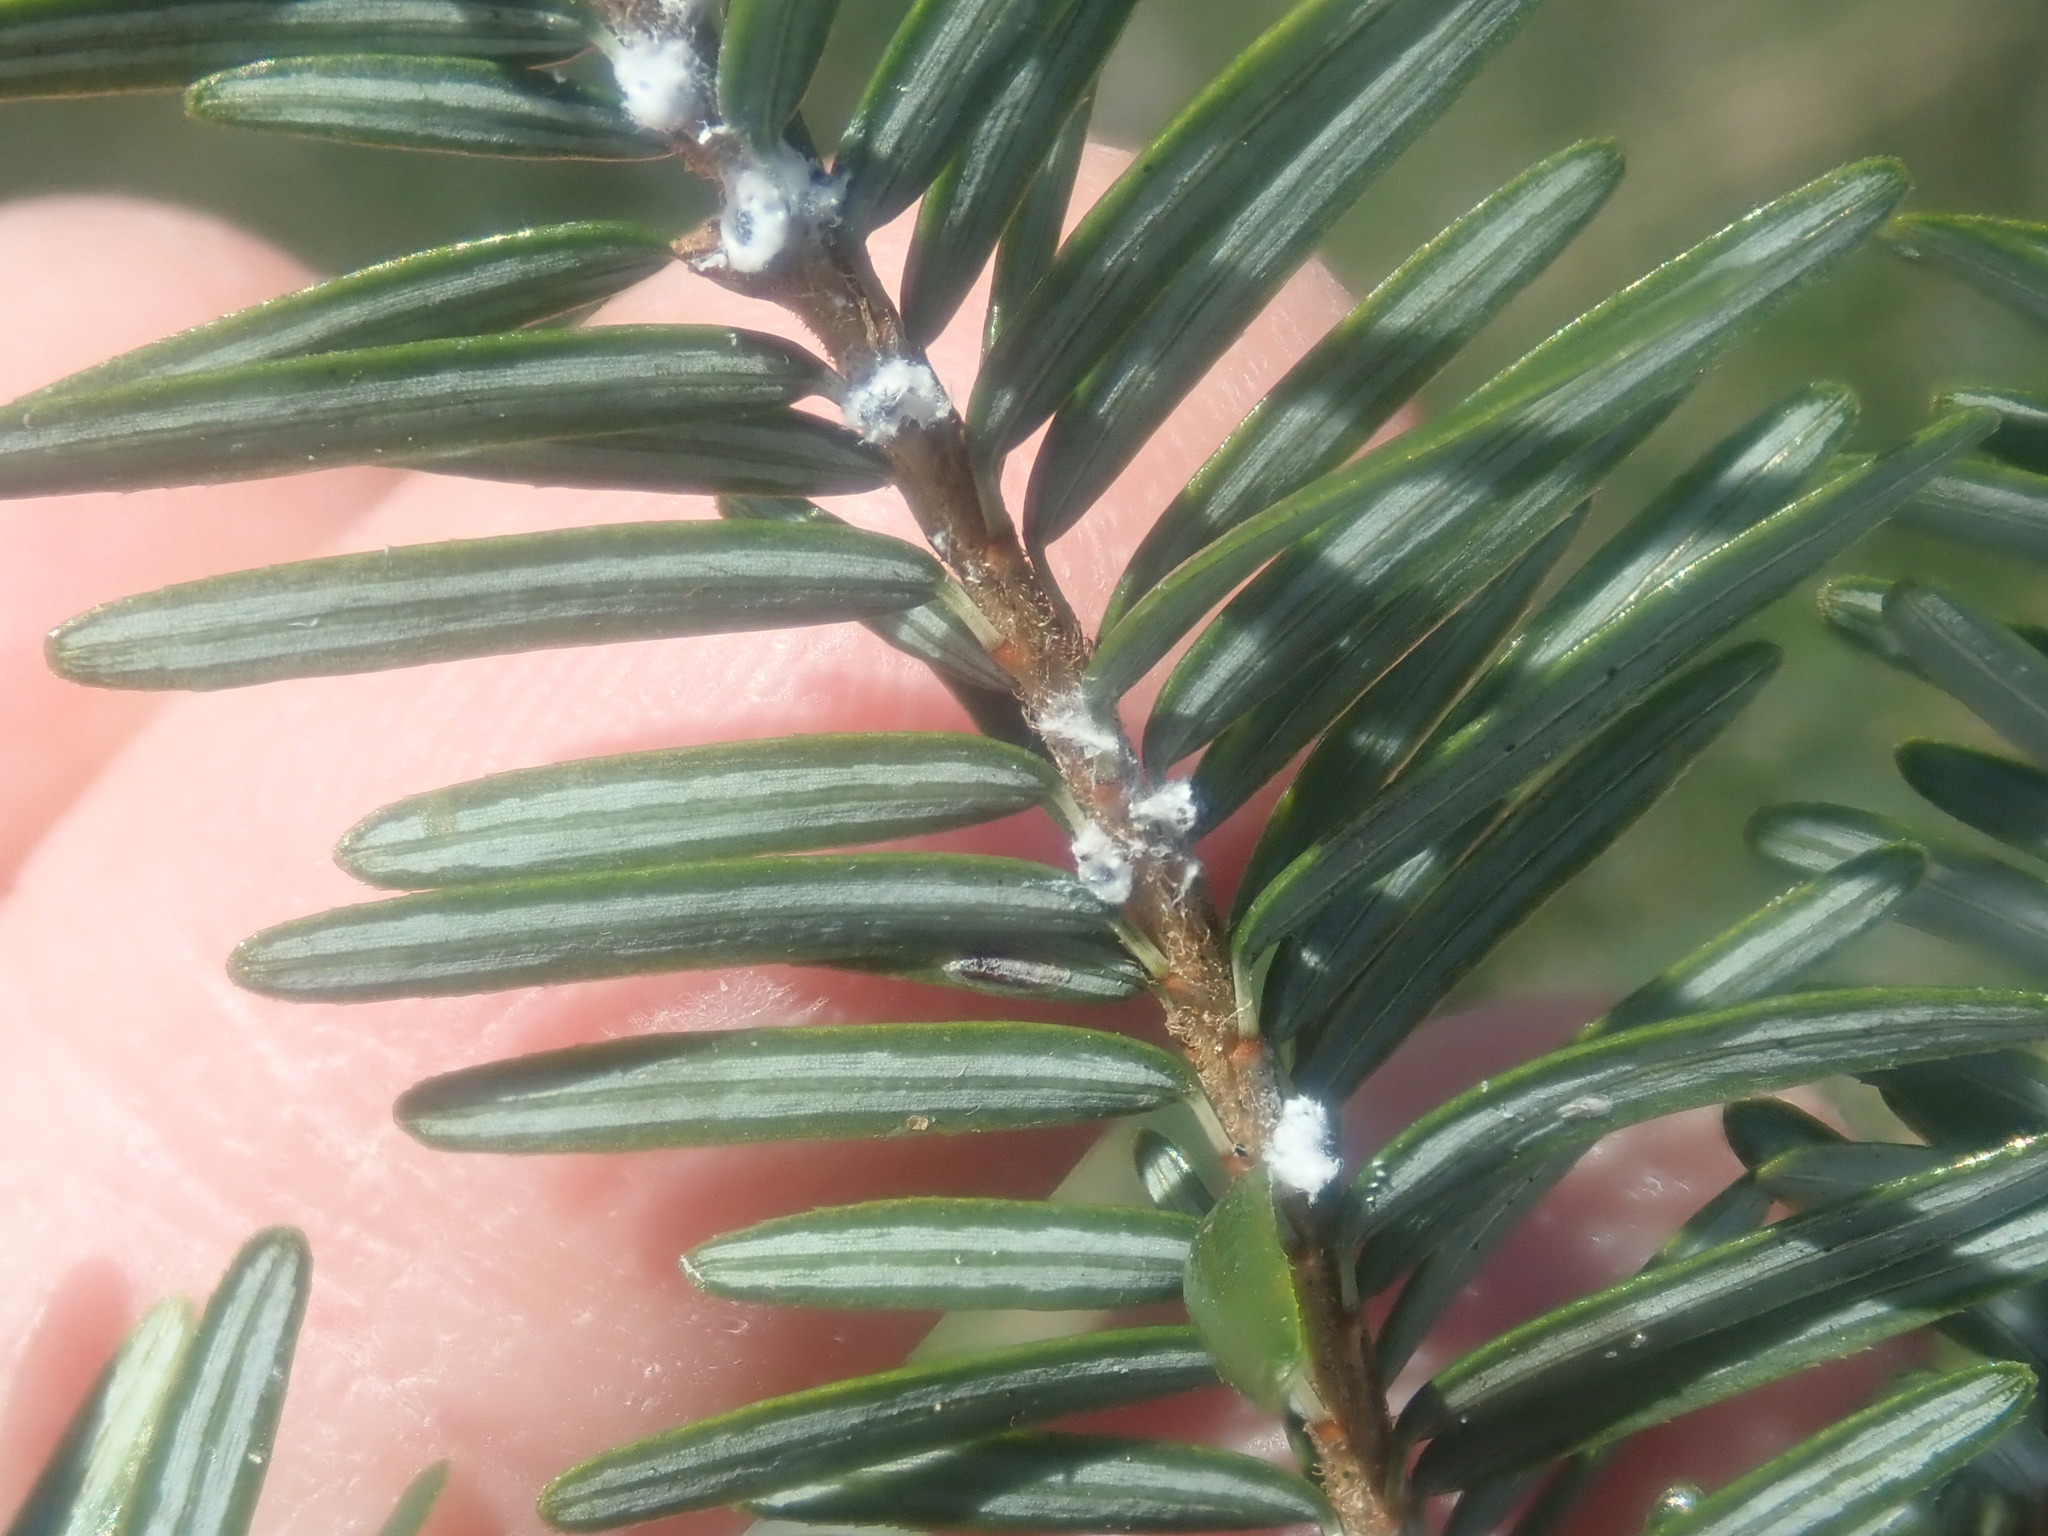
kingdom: Animalia
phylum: Arthropoda
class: Insecta
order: Hemiptera
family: Adelgidae
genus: Adelges
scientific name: Adelges tsugae
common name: Hemlock woolly adelgid
